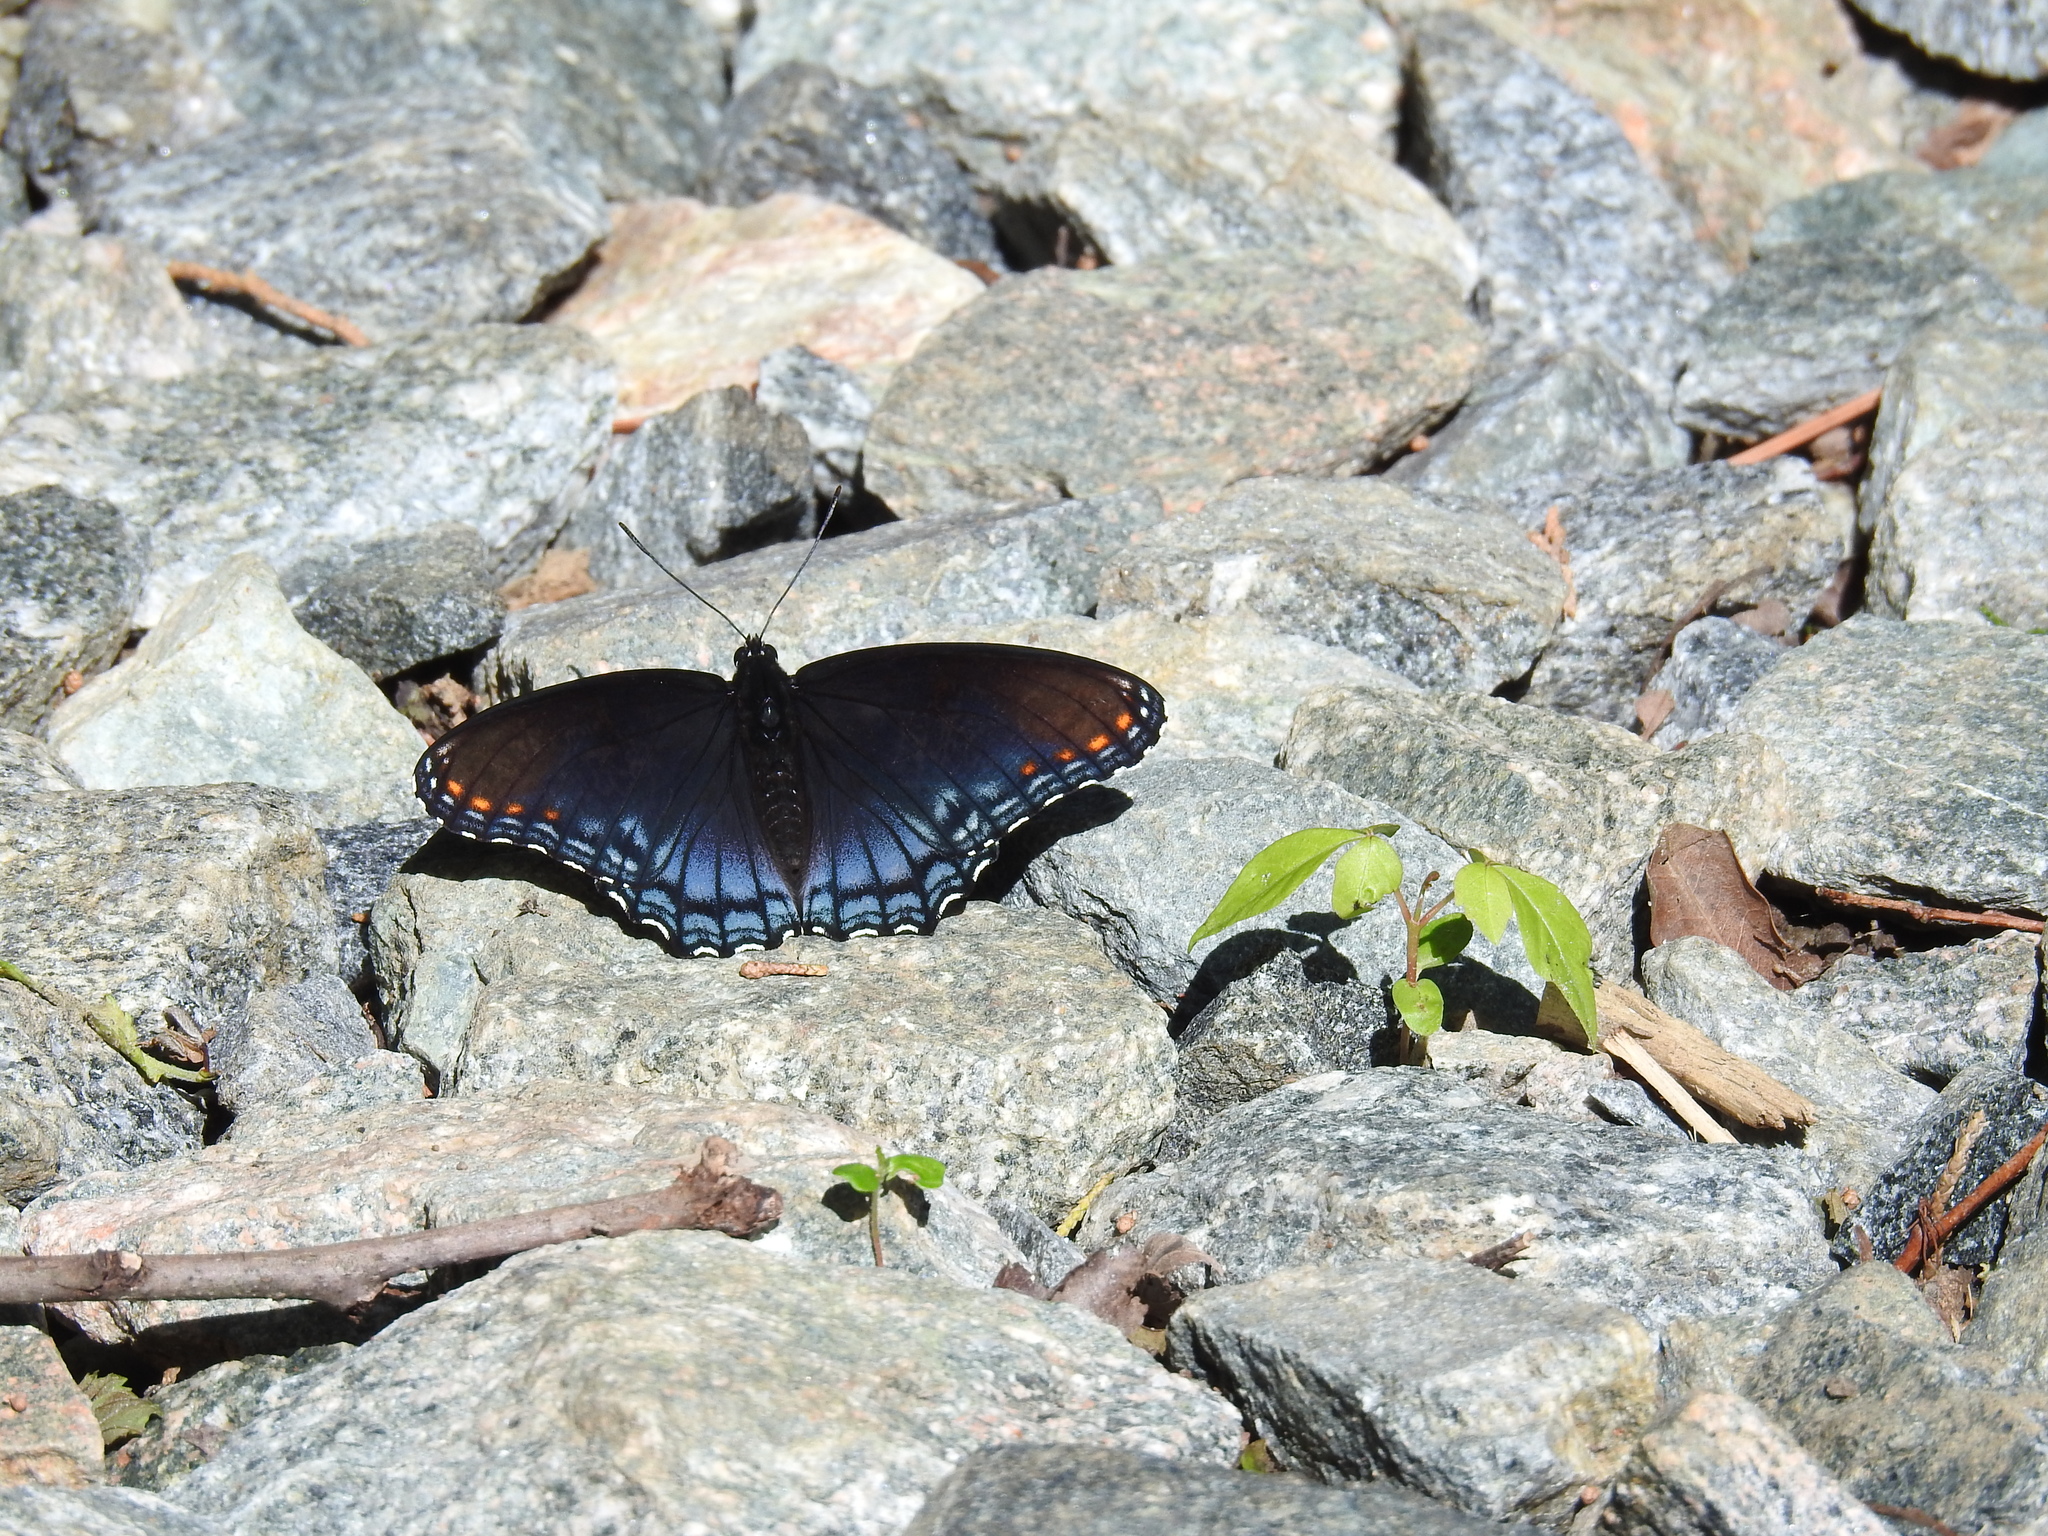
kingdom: Animalia
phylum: Arthropoda
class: Insecta
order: Lepidoptera
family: Nymphalidae
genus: Limenitis
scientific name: Limenitis astyanax
